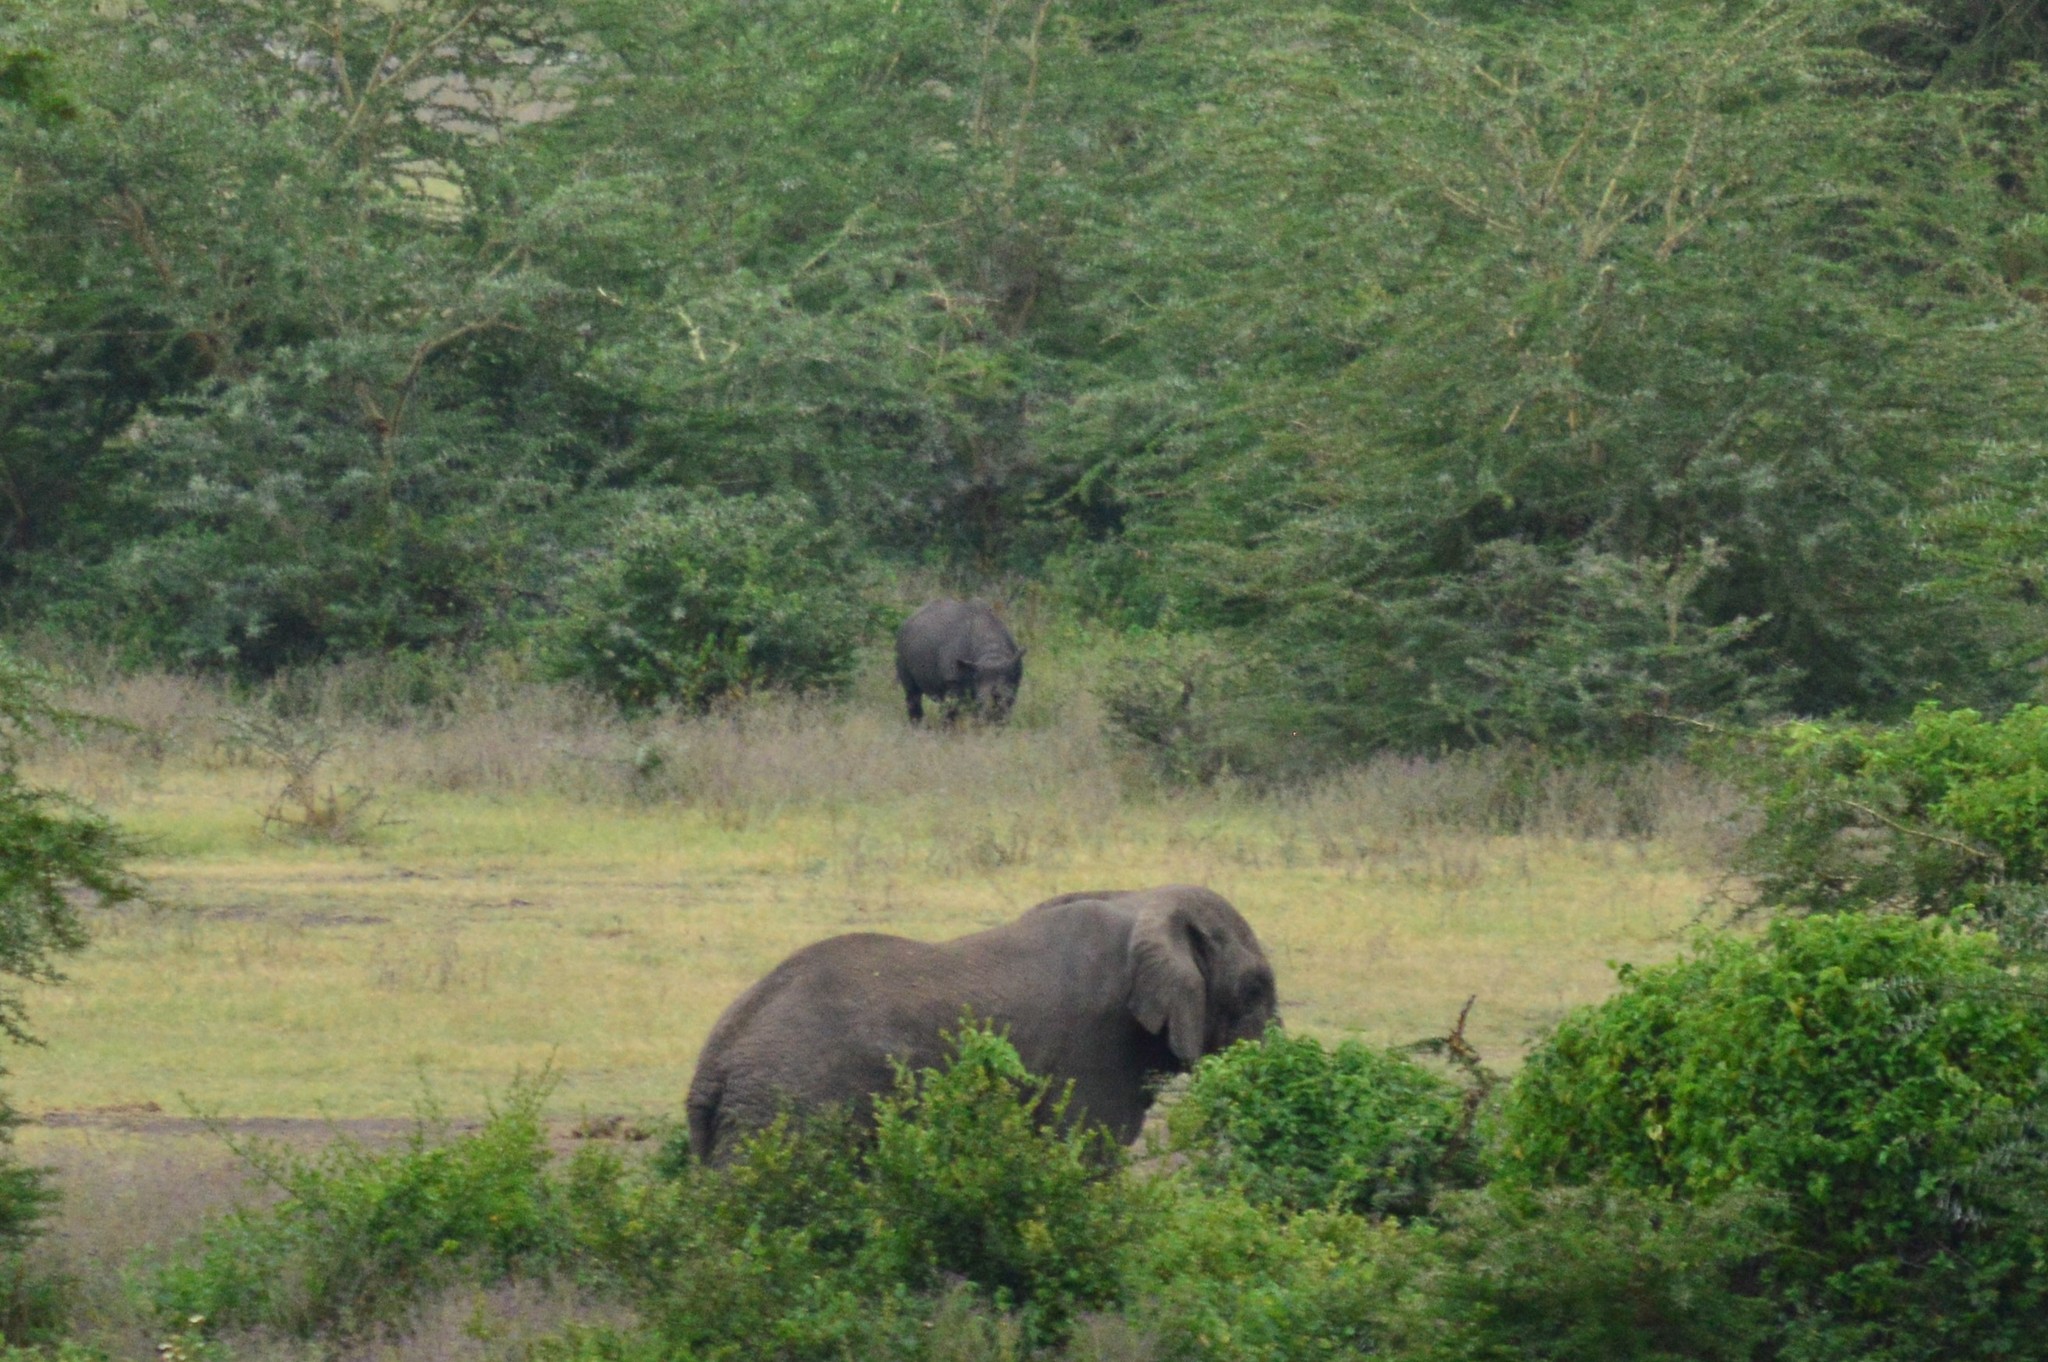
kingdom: Animalia
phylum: Chordata
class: Mammalia
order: Perissodactyla
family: Rhinocerotidae
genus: Diceros
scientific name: Diceros bicornis
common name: Black rhinoceros
